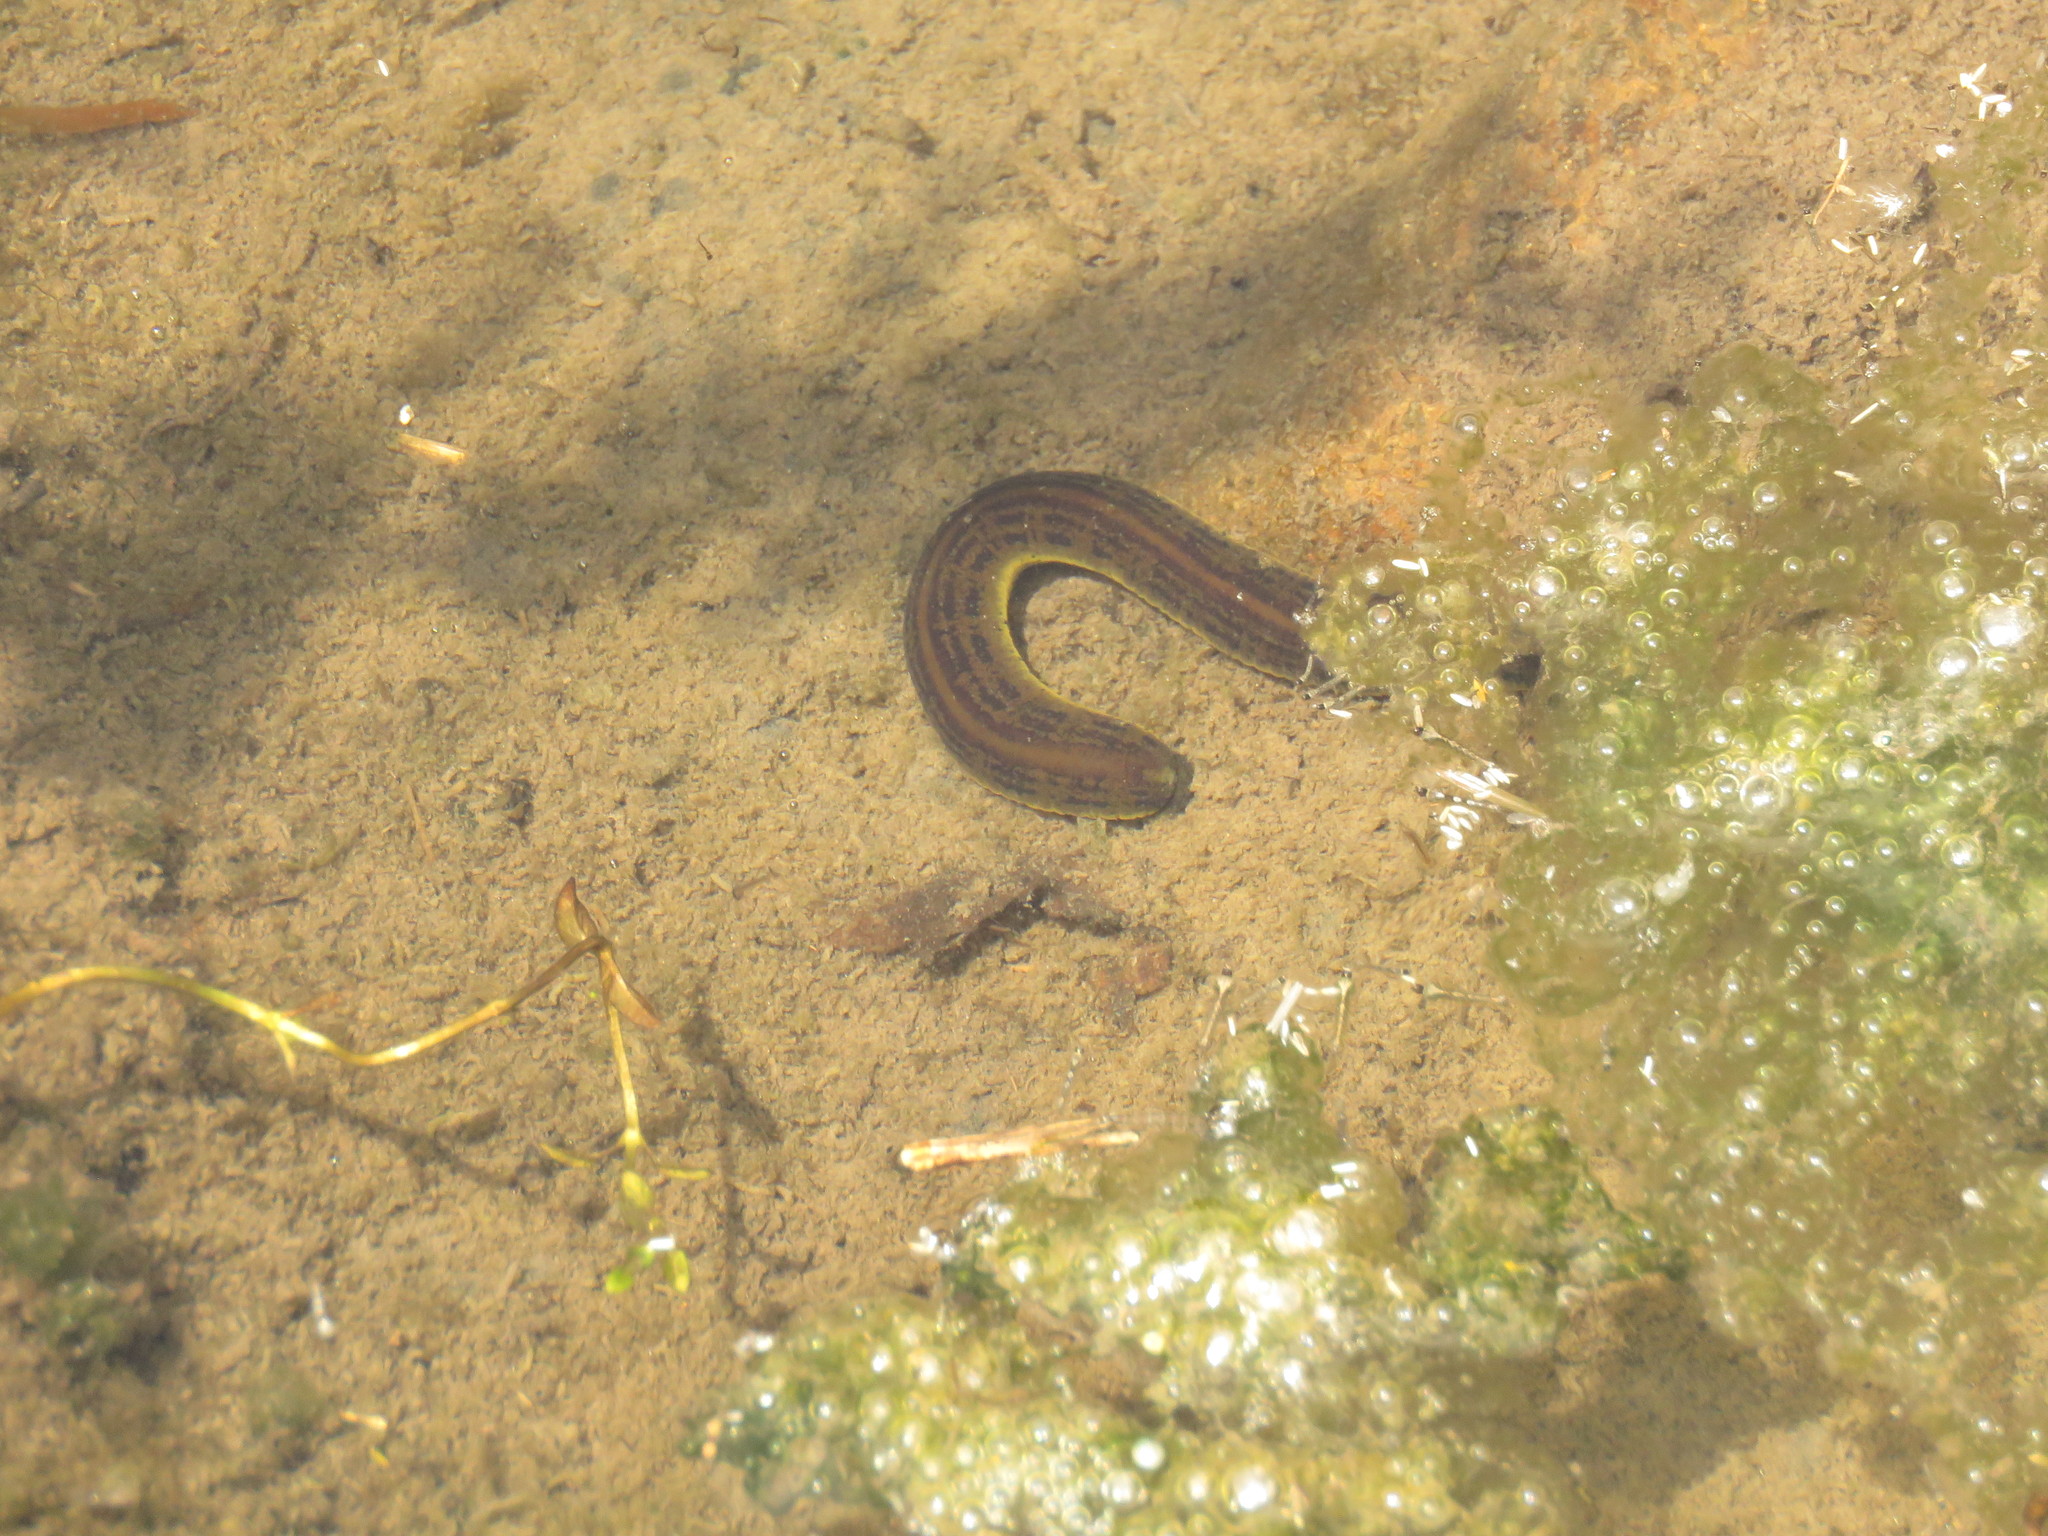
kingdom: Animalia
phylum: Annelida
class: Clitellata
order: Arhynchobdellida
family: Haemopidae
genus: Haemopis
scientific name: Haemopis sanguisuga
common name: Horse leech
